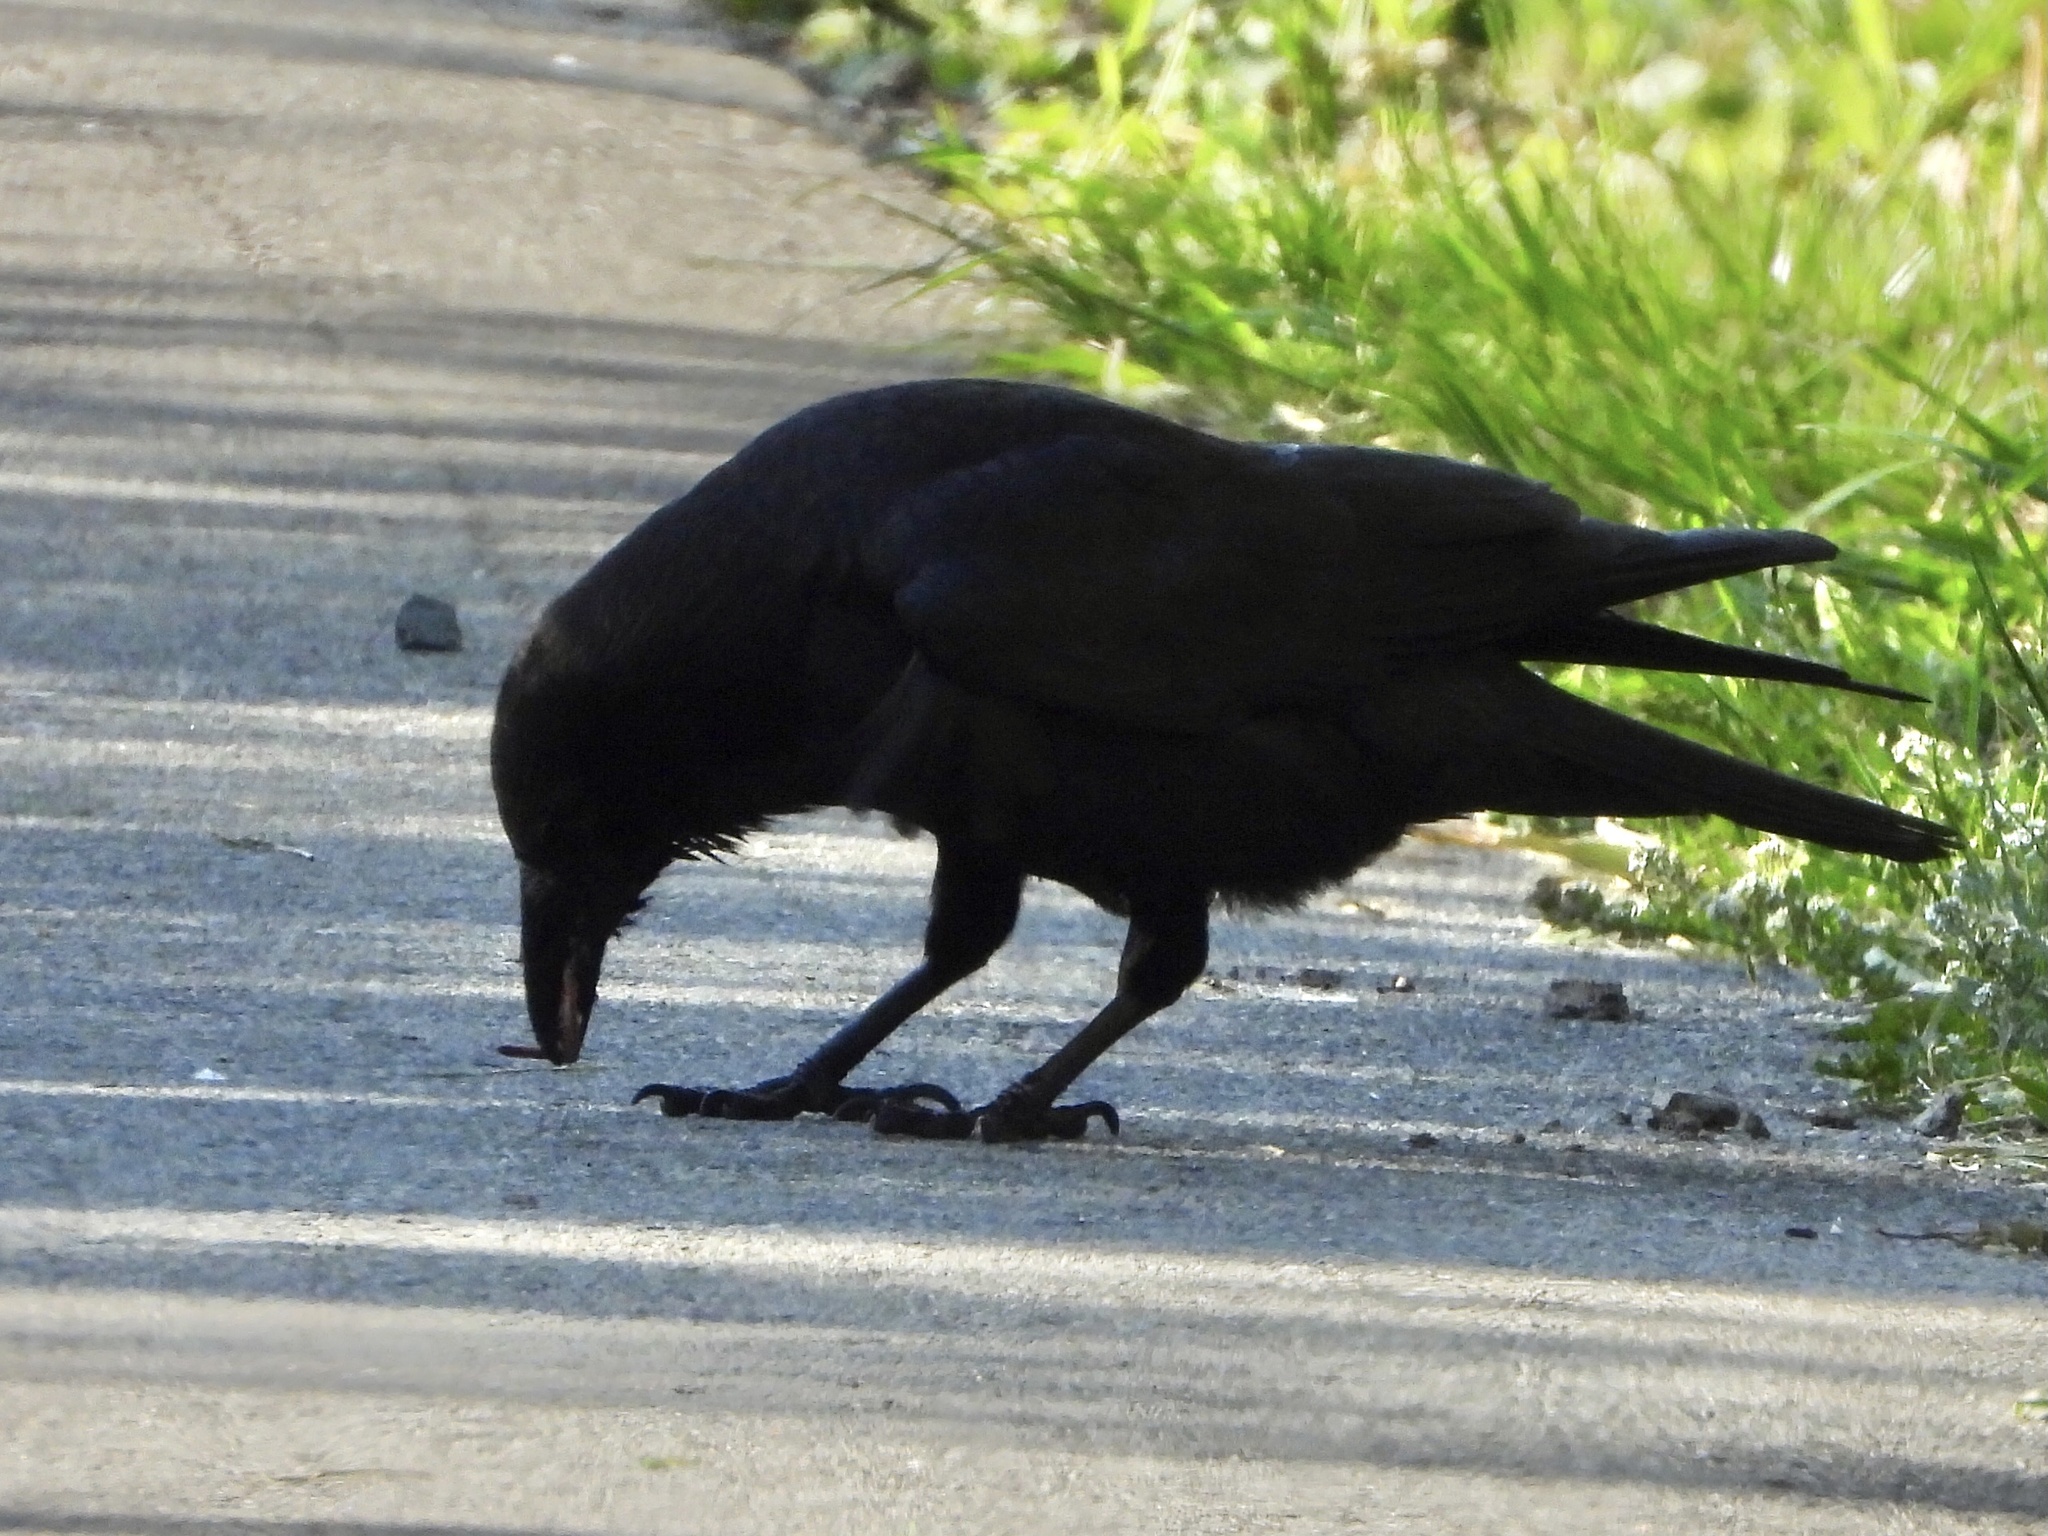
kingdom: Animalia
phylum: Chordata
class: Aves
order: Passeriformes
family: Corvidae
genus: Corvus
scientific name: Corvus brachyrhynchos
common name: American crow
